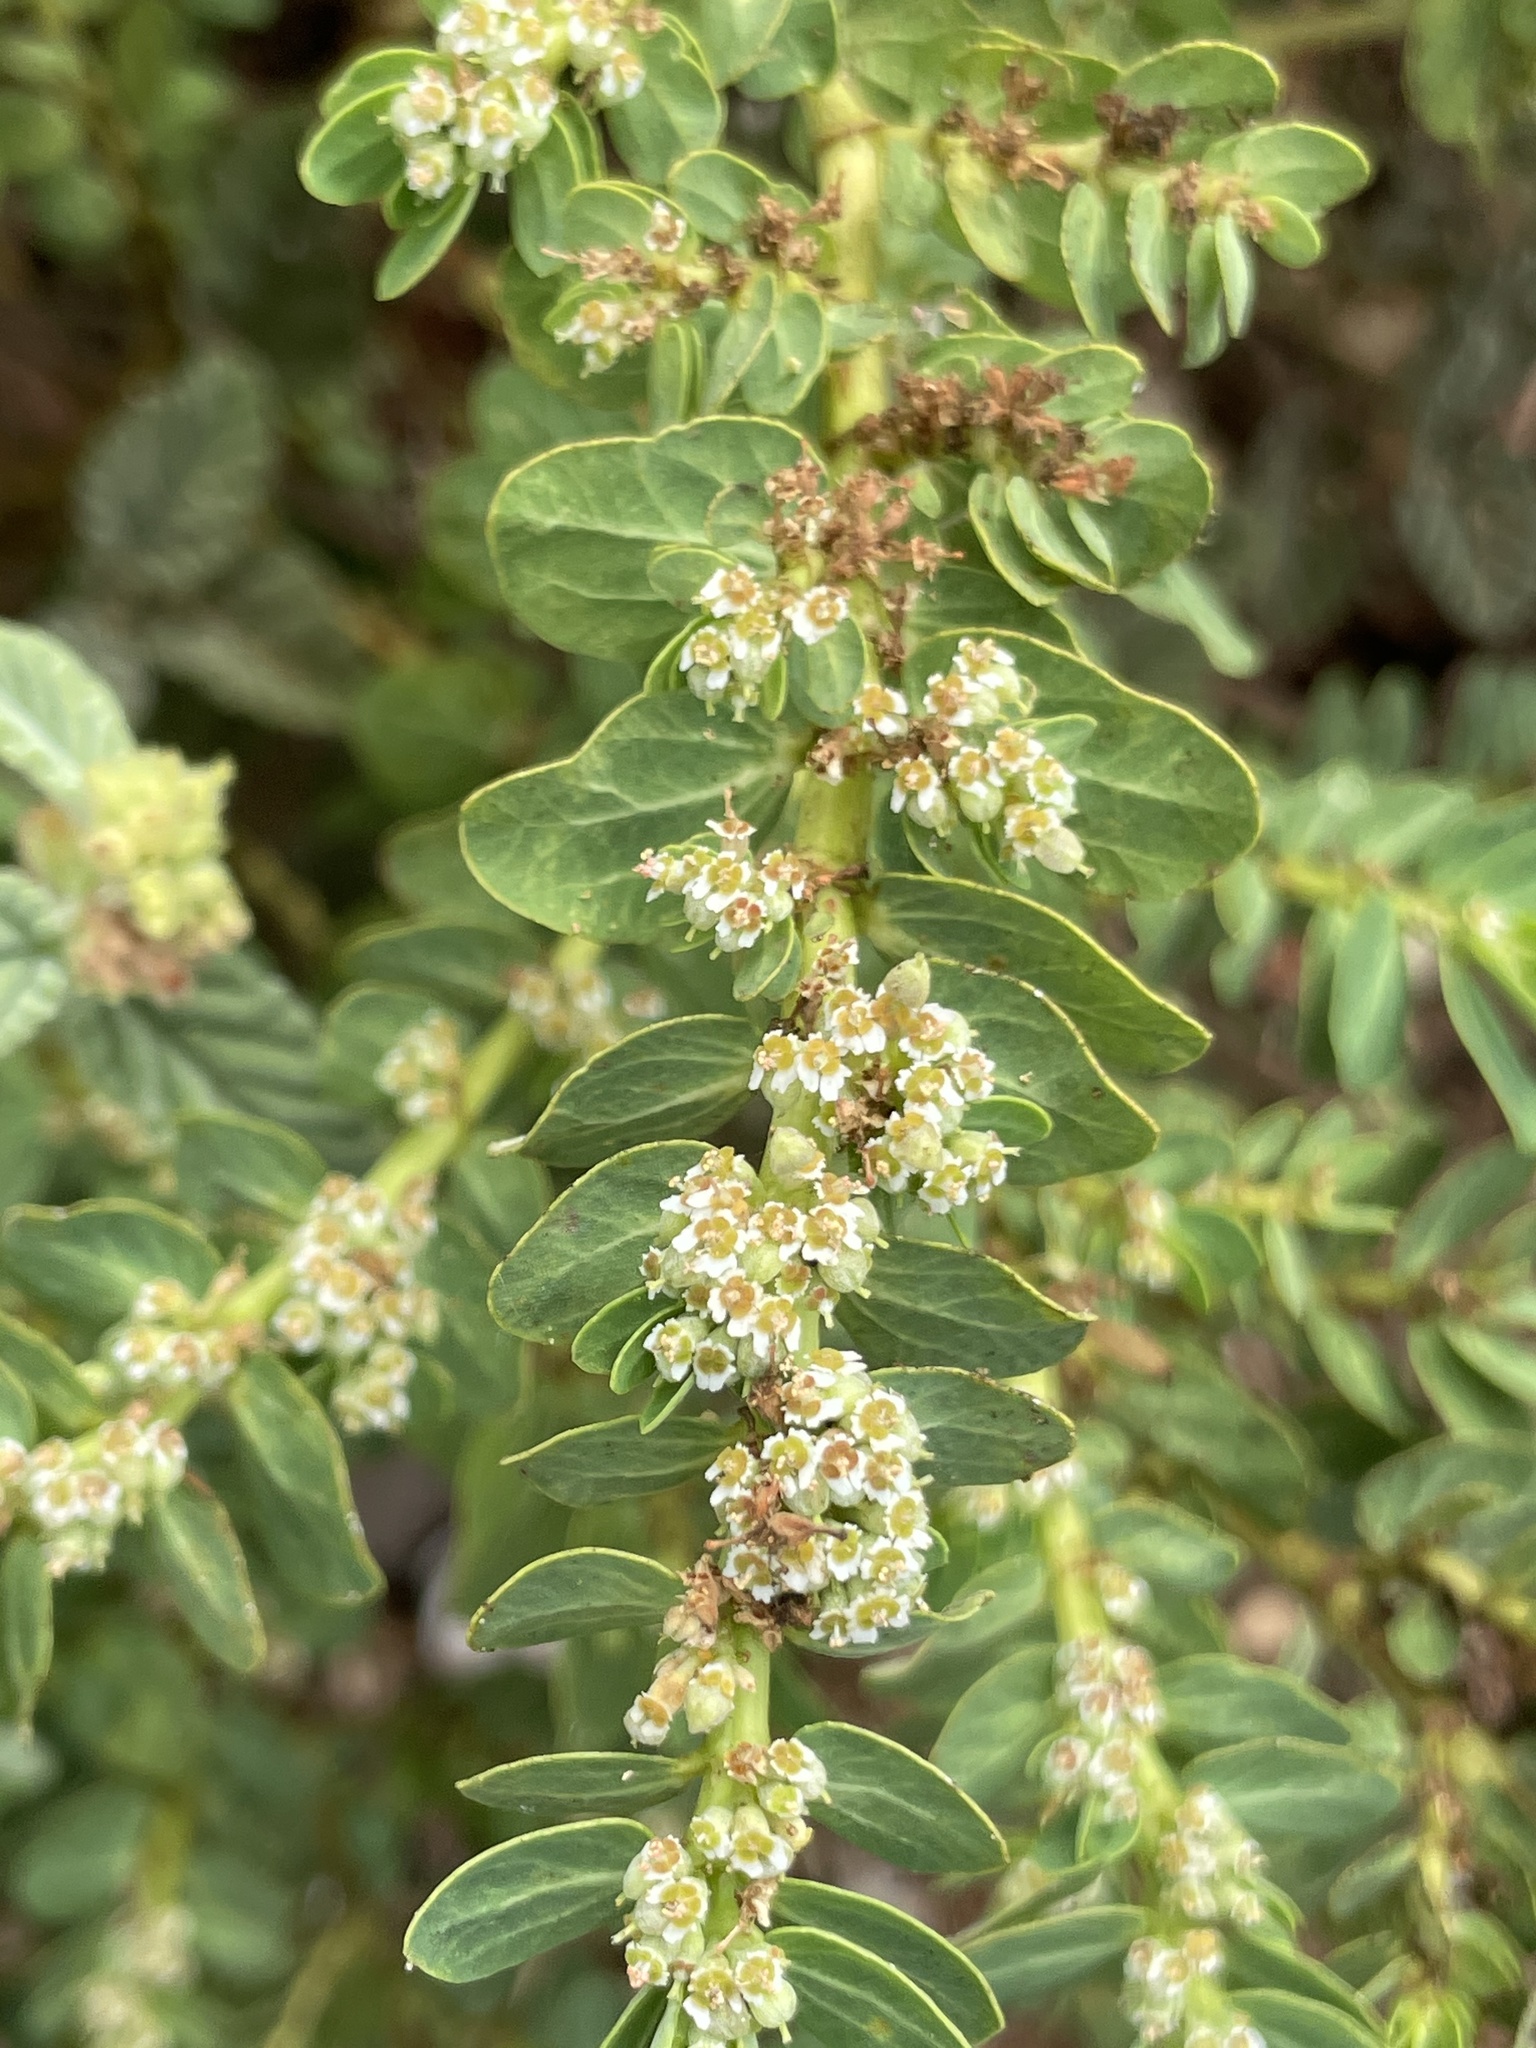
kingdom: Plantae
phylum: Tracheophyta
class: Magnoliopsida
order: Malpighiales
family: Euphorbiaceae
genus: Euphorbia
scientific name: Euphorbia anthonyi
